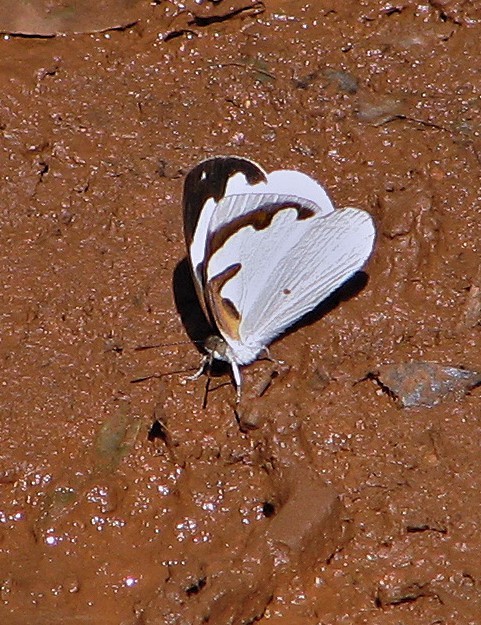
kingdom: Animalia
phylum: Arthropoda
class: Insecta
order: Lepidoptera
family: Nymphalidae
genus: Dynamine
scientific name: Dynamine myrrhina
